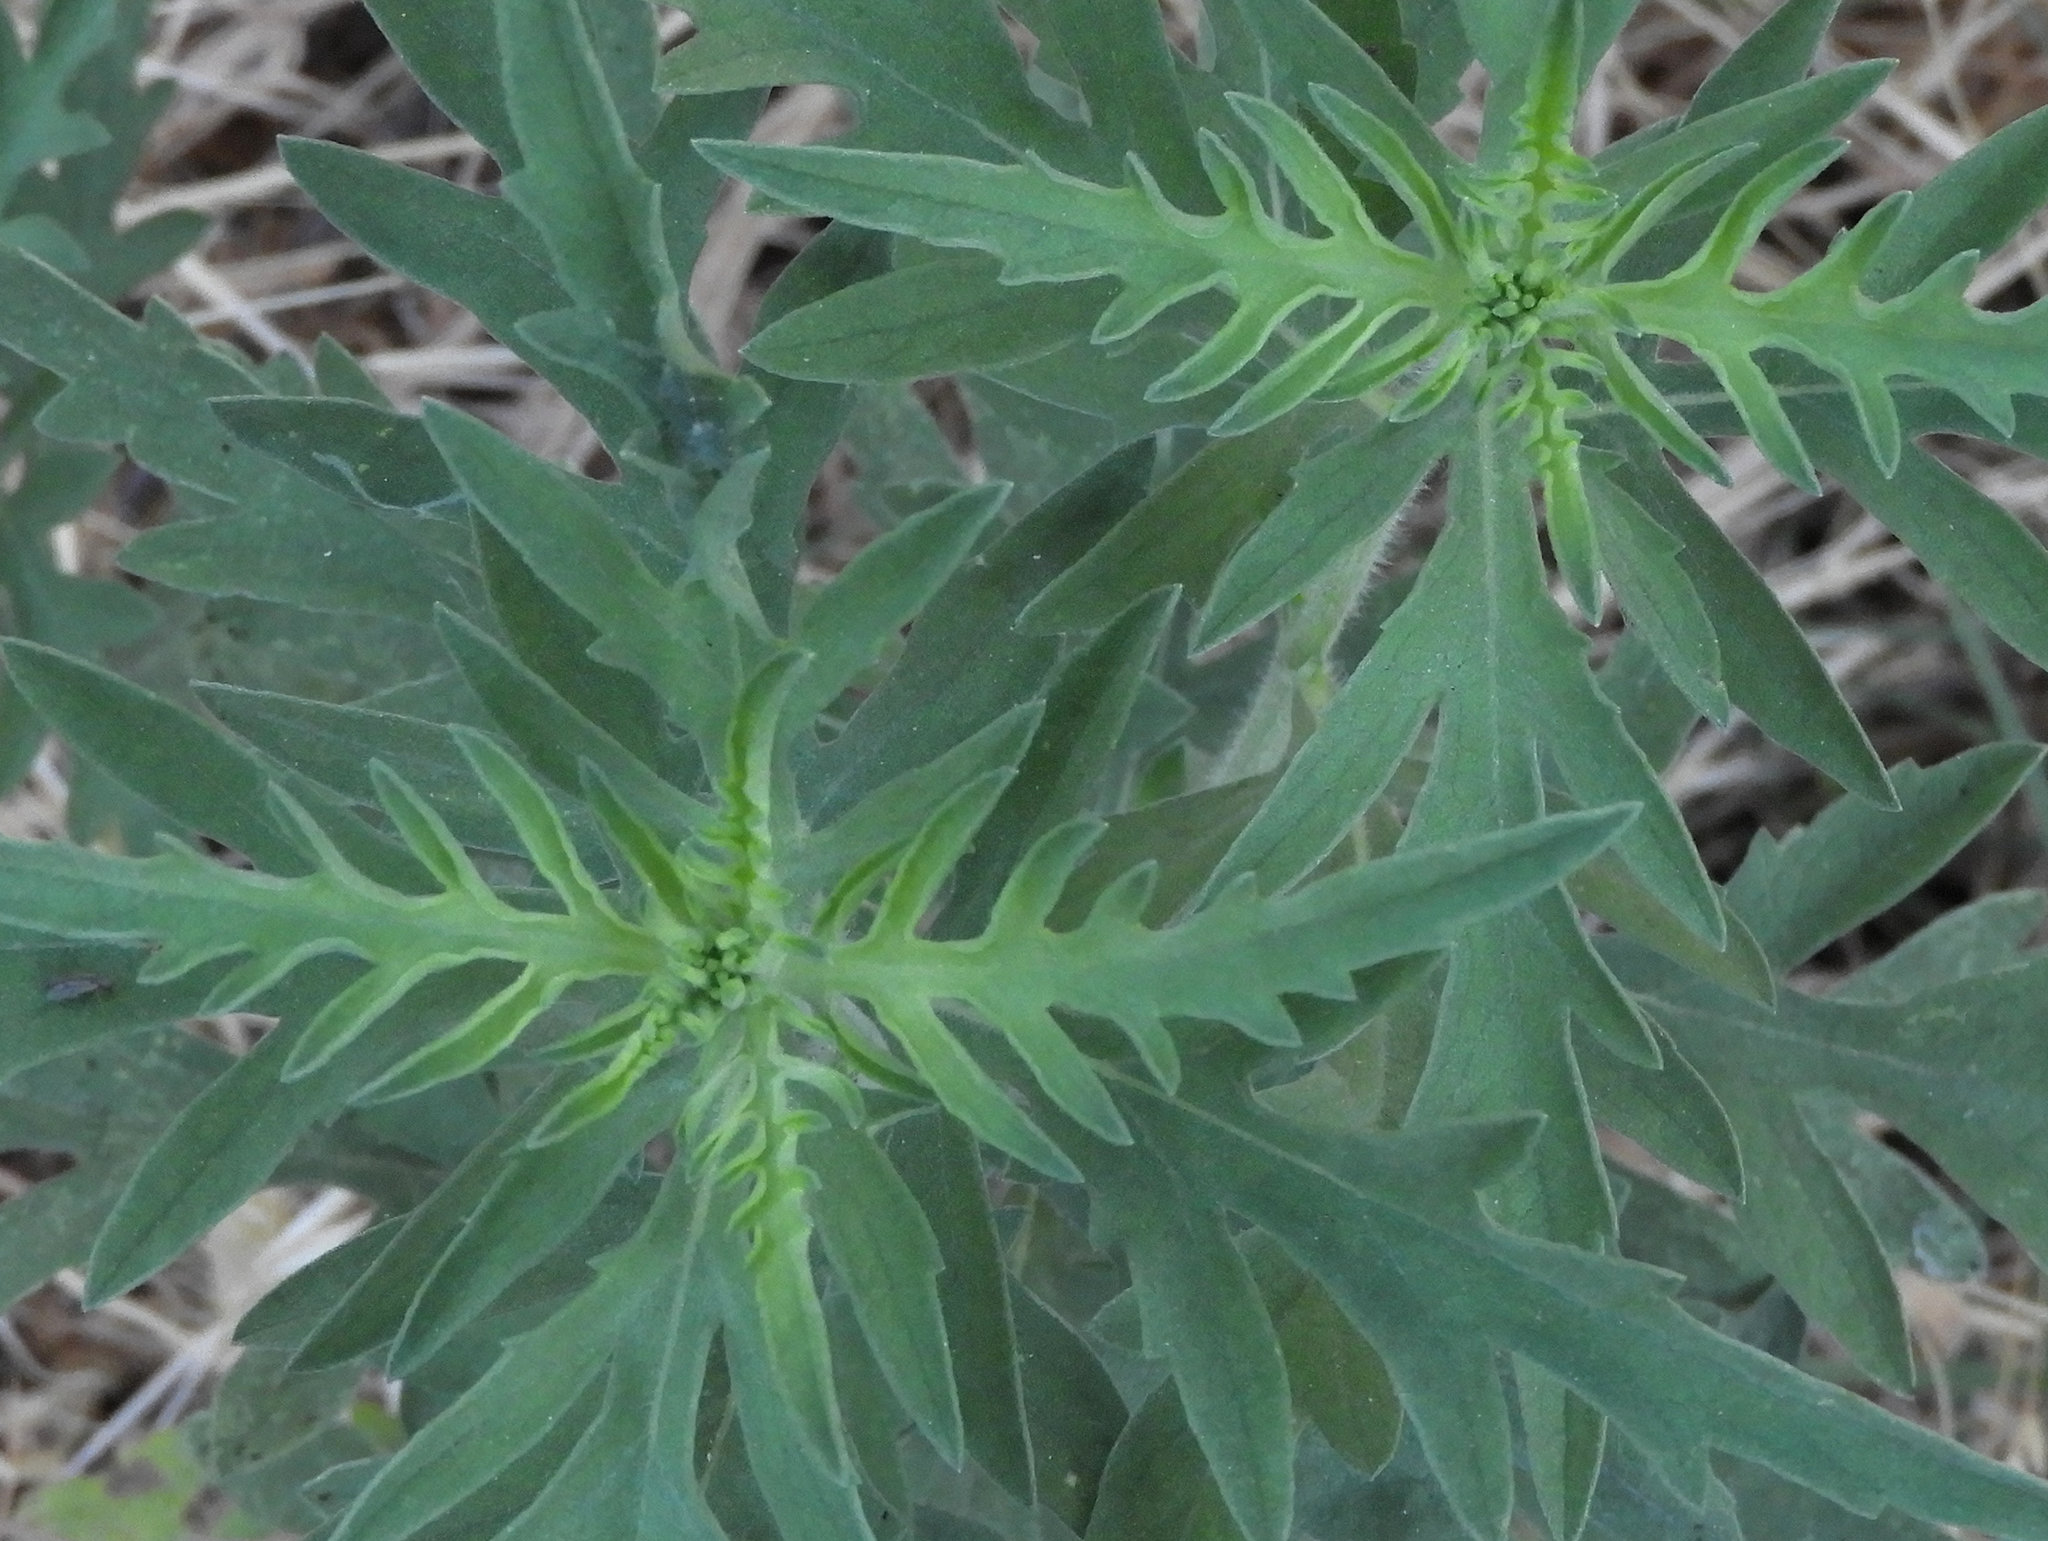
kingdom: Plantae
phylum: Tracheophyta
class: Magnoliopsida
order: Asterales
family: Asteraceae
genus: Ambrosia
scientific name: Ambrosia psilostachya
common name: Perennial ragweed
